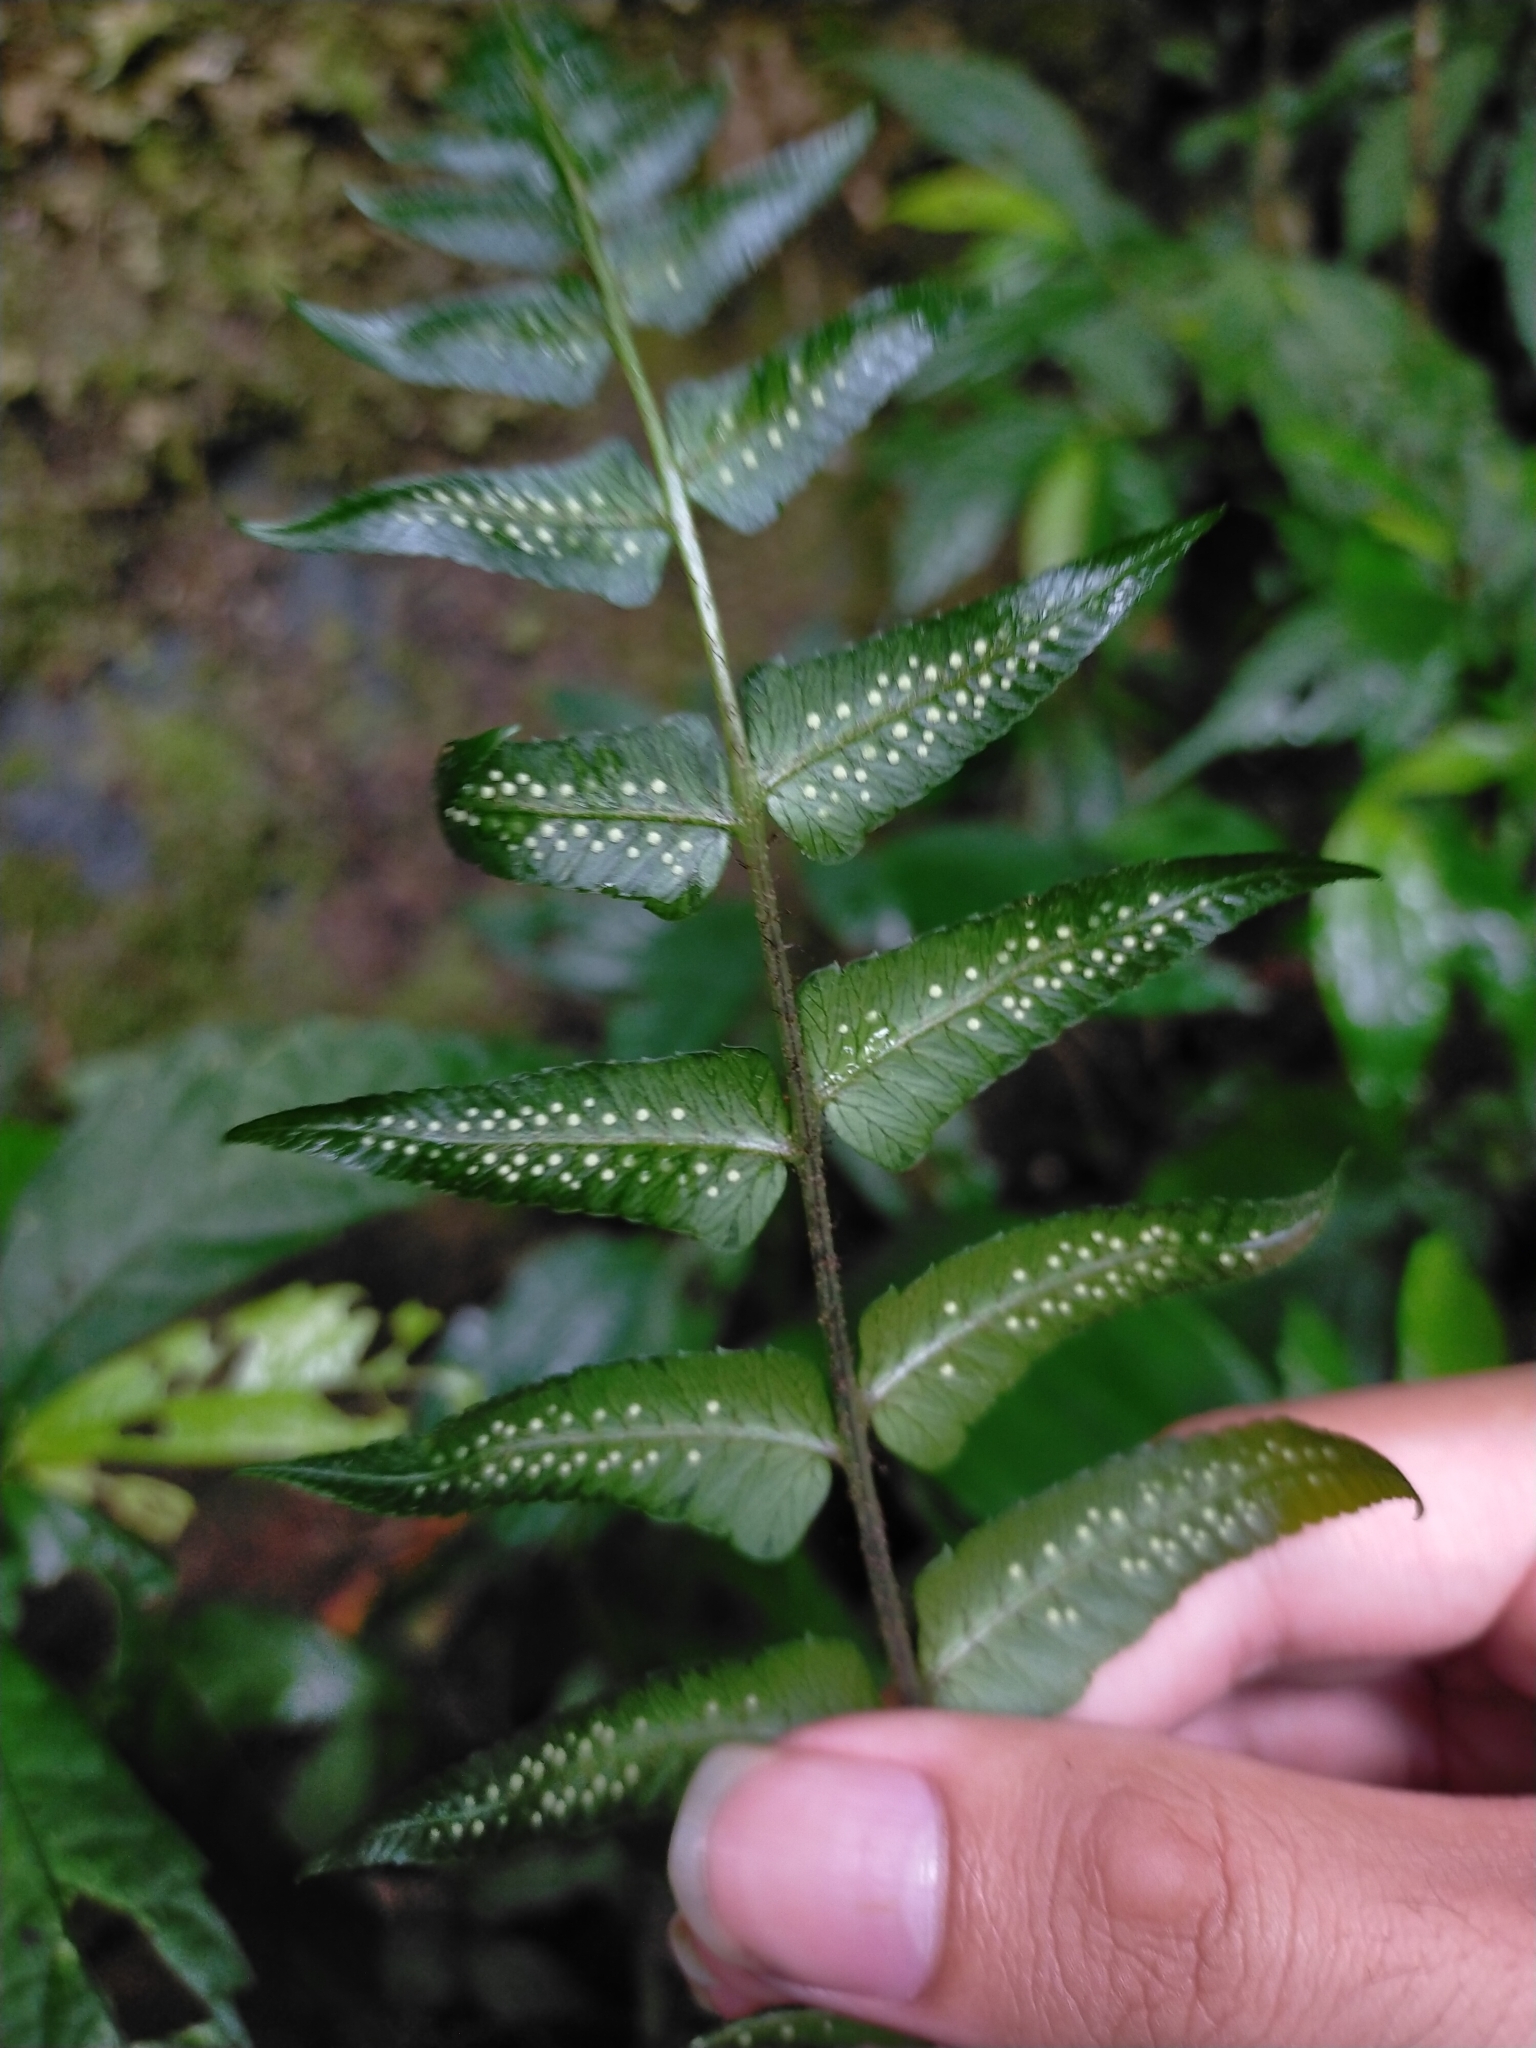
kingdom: Plantae
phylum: Tracheophyta
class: Polypodiopsida
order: Polypodiales
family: Dryopteridaceae
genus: Dryopteris
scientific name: Dryopteris scottii
